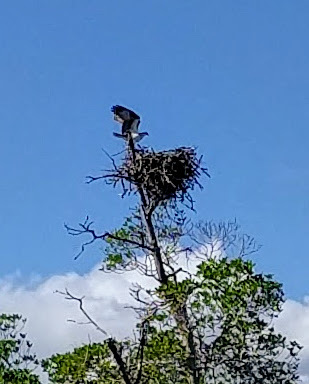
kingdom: Animalia
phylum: Chordata
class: Aves
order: Accipitriformes
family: Pandionidae
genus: Pandion
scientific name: Pandion haliaetus
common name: Osprey
